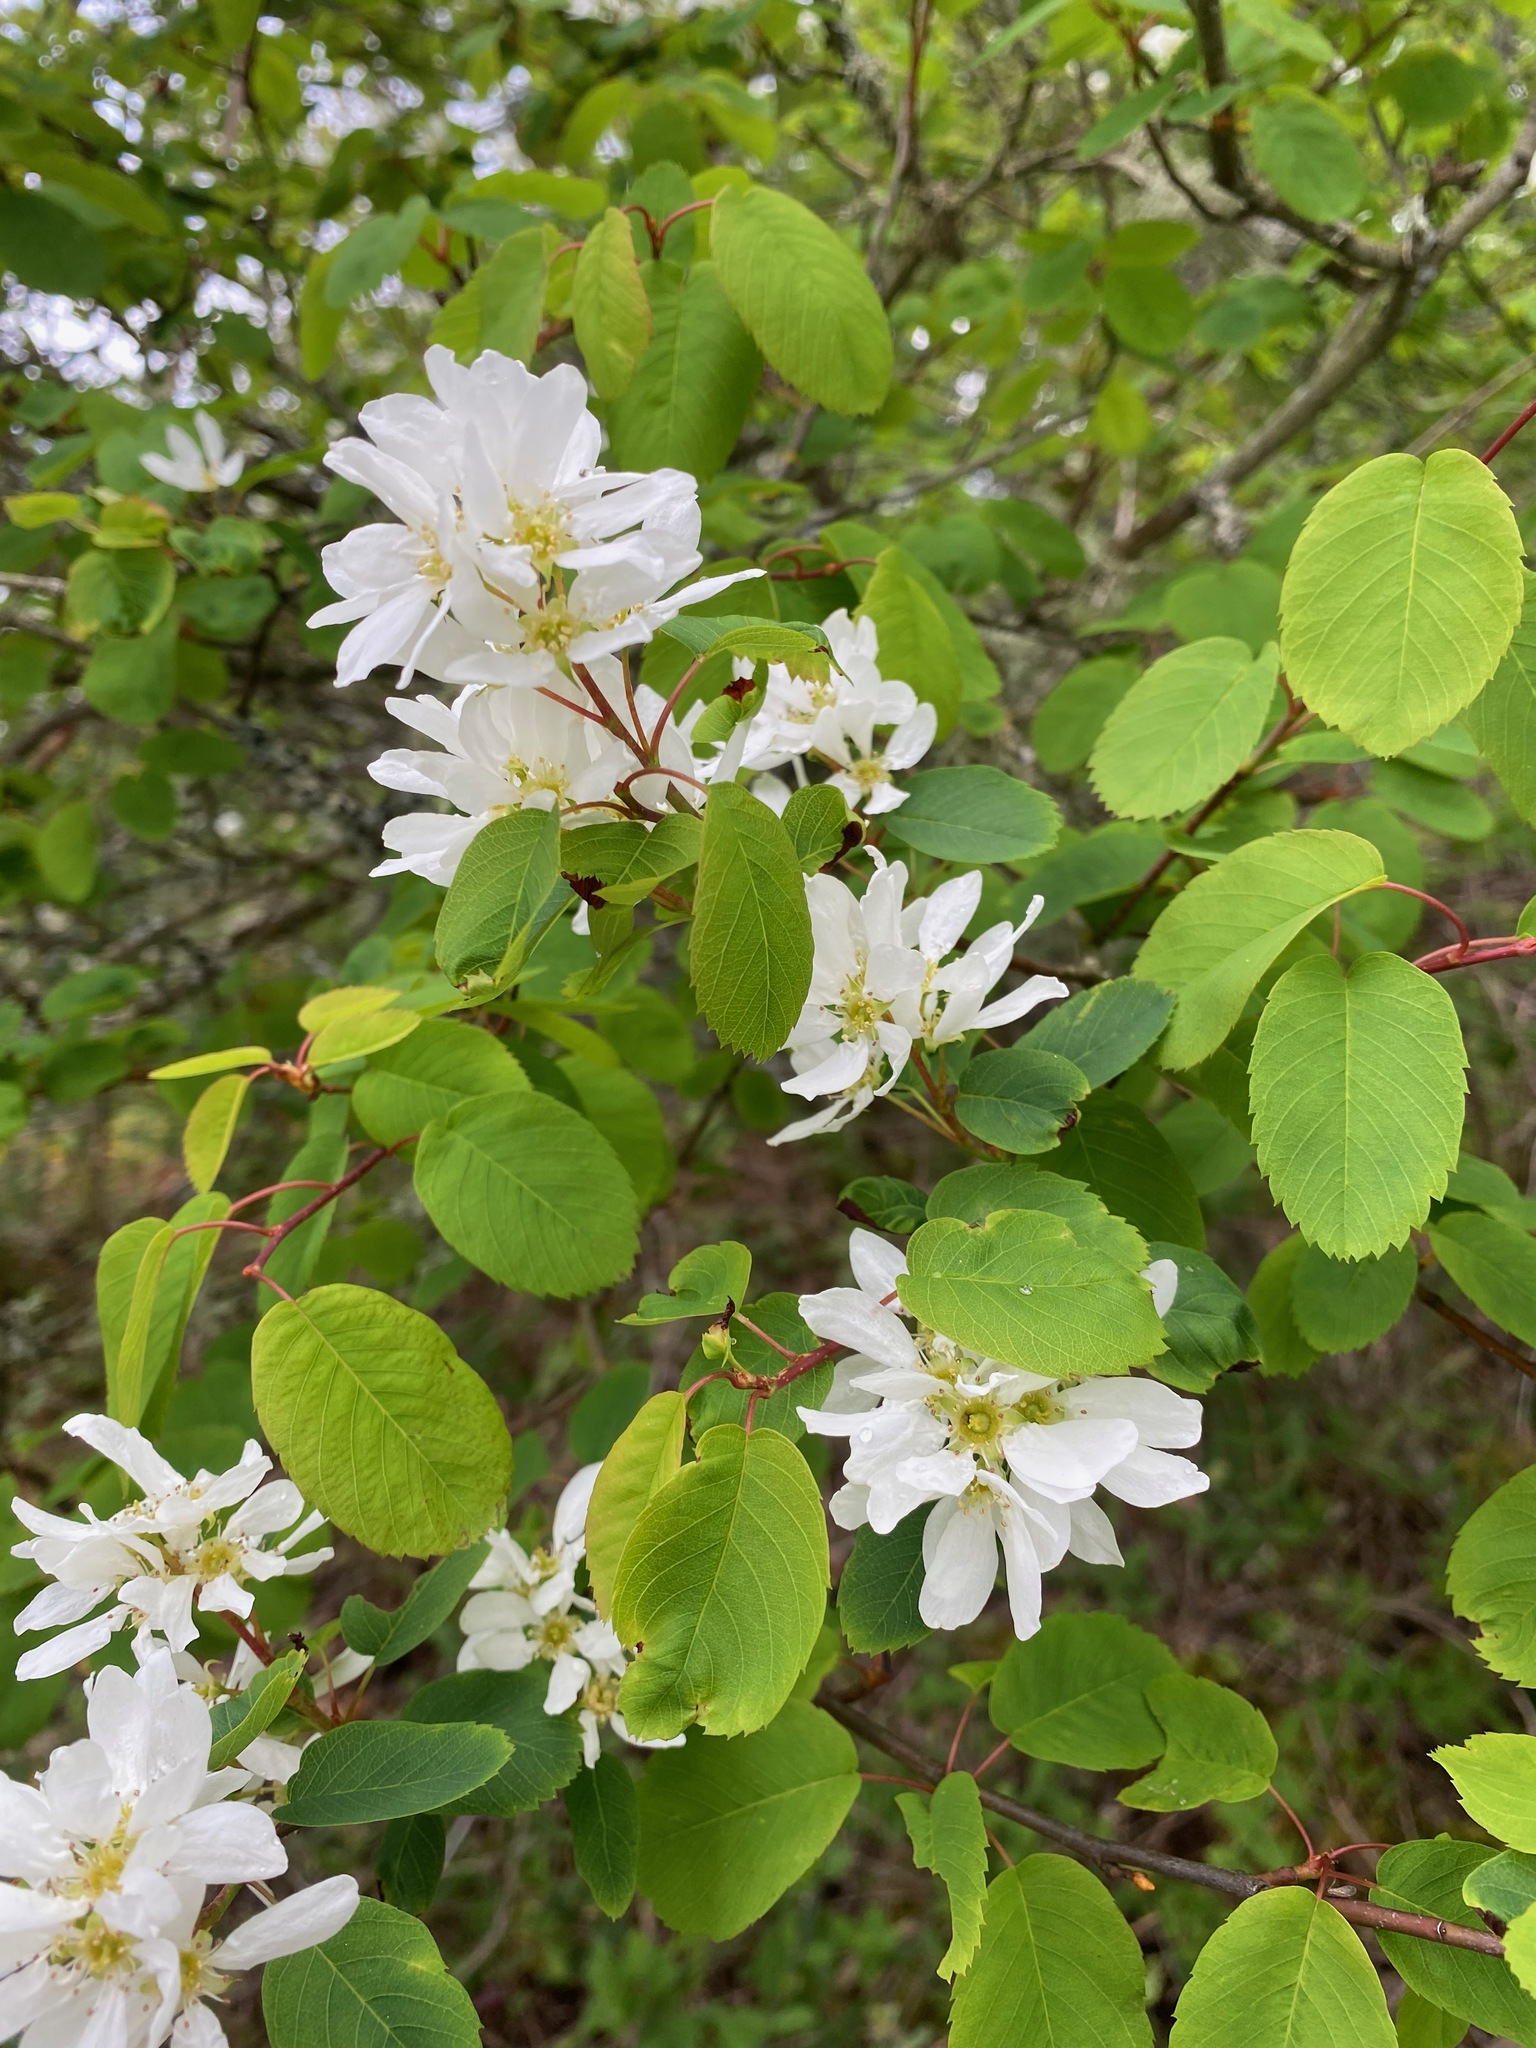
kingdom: Plantae
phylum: Tracheophyta
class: Magnoliopsida
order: Rosales
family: Rosaceae
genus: Amelanchier
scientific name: Amelanchier alnifolia
